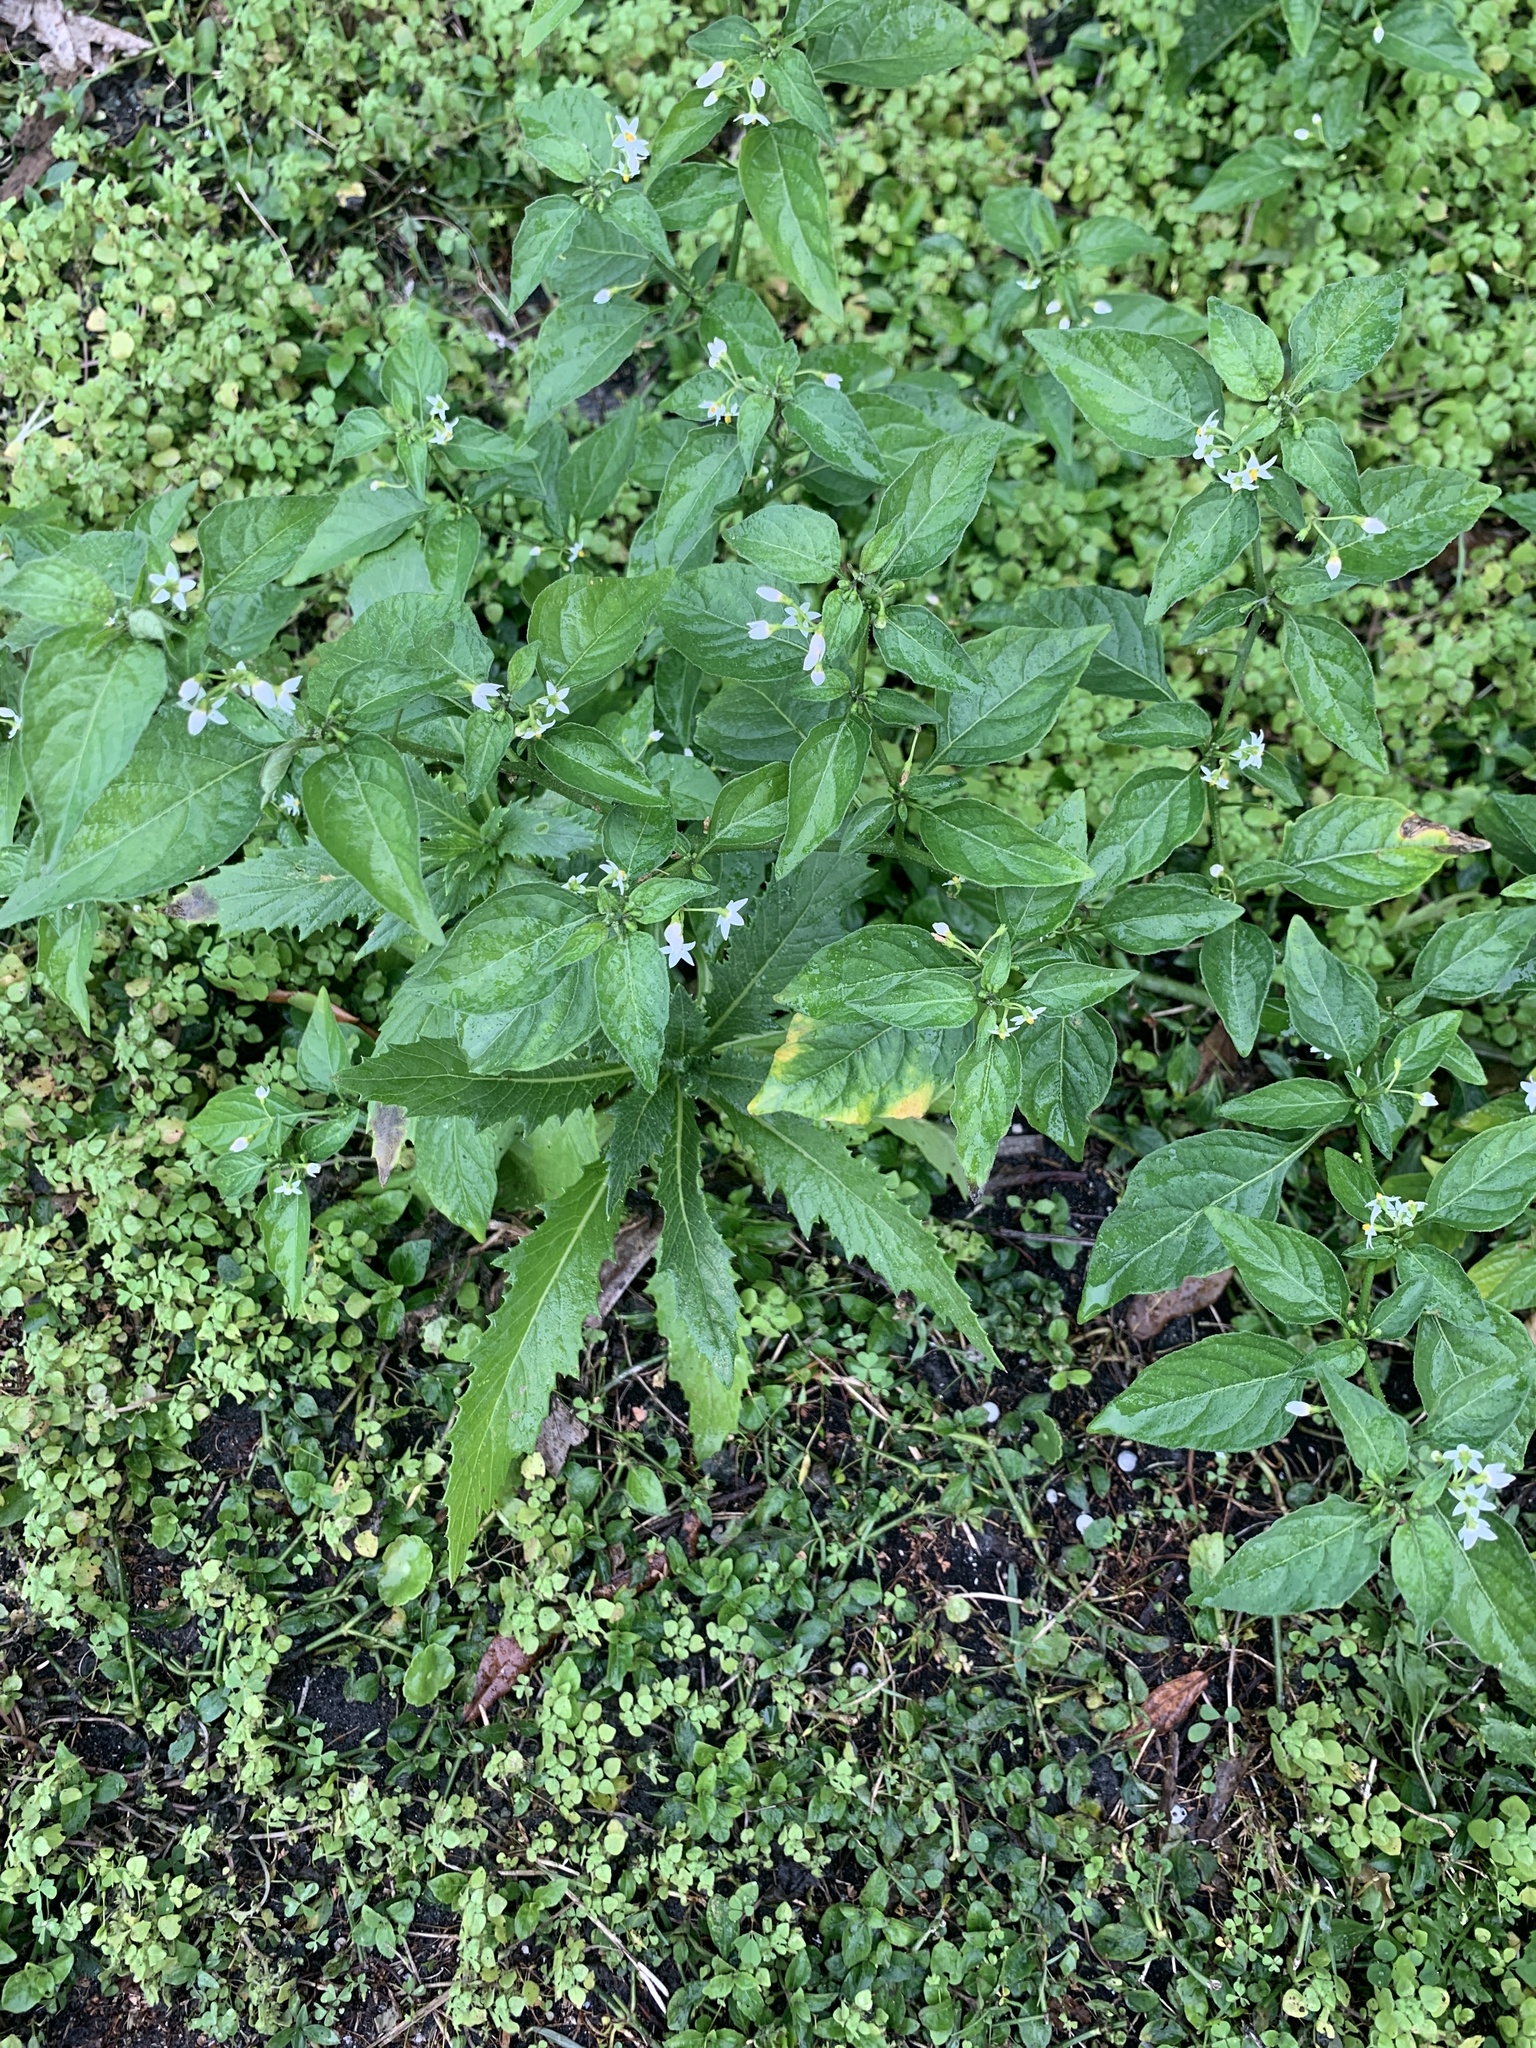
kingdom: Plantae
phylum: Tracheophyta
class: Magnoliopsida
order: Solanales
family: Solanaceae
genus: Solanum
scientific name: Solanum emulans
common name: Eastern black nightshade
